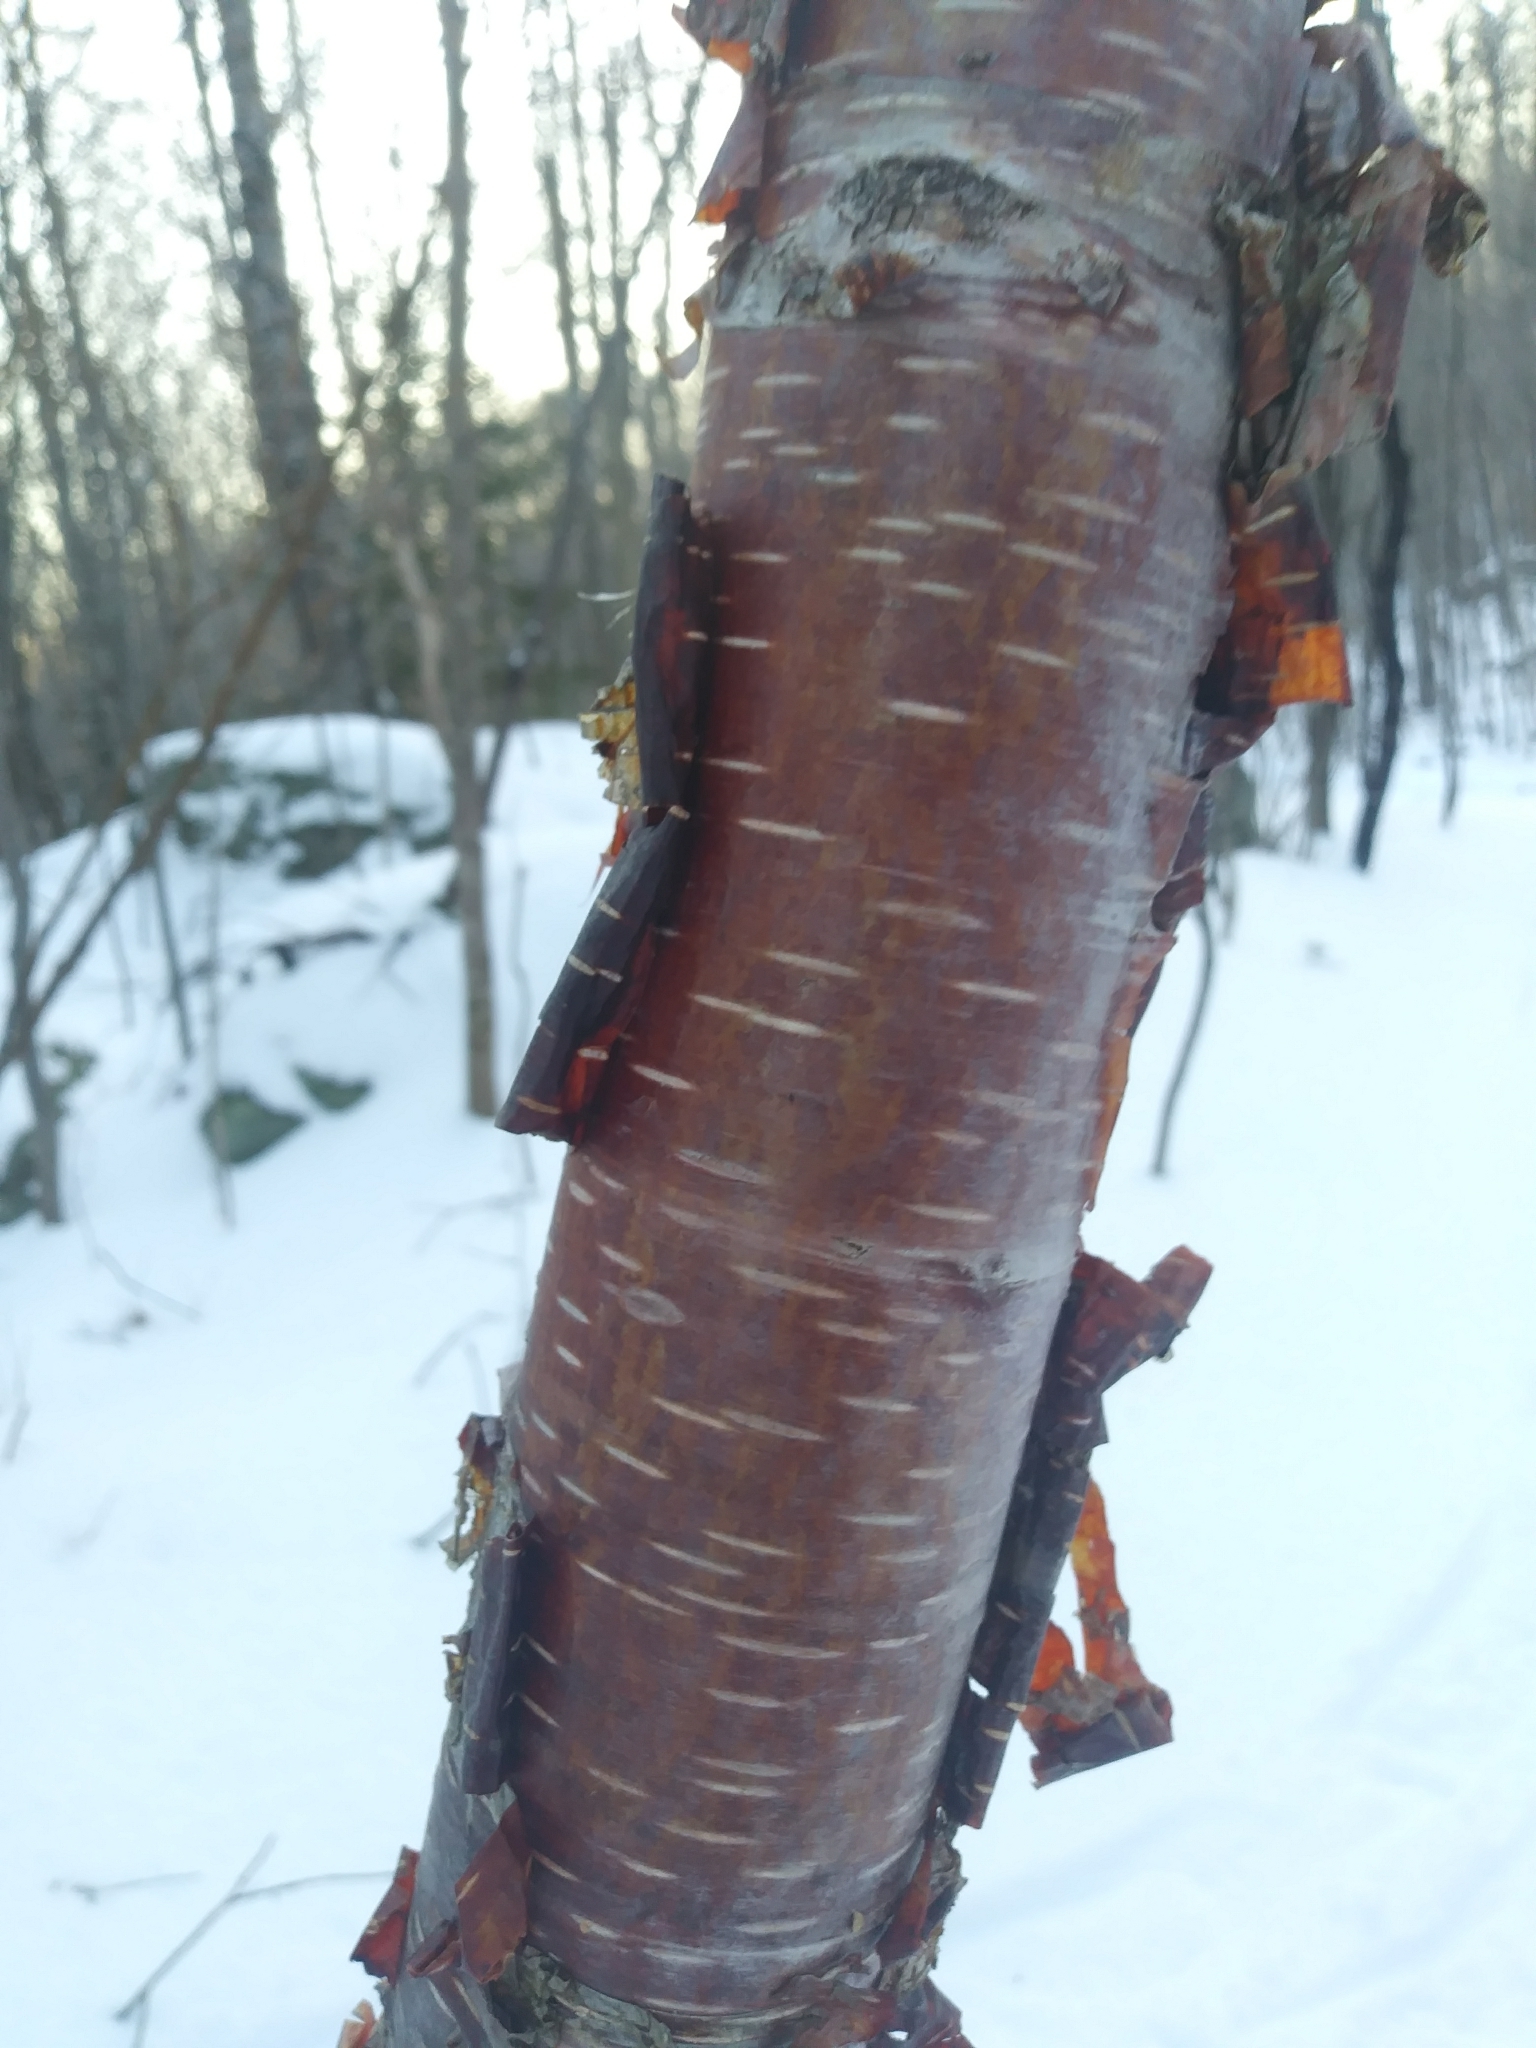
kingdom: Plantae
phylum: Tracheophyta
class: Magnoliopsida
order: Fagales
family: Betulaceae
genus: Betula
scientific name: Betula cordifolia
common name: Mountain white birch
